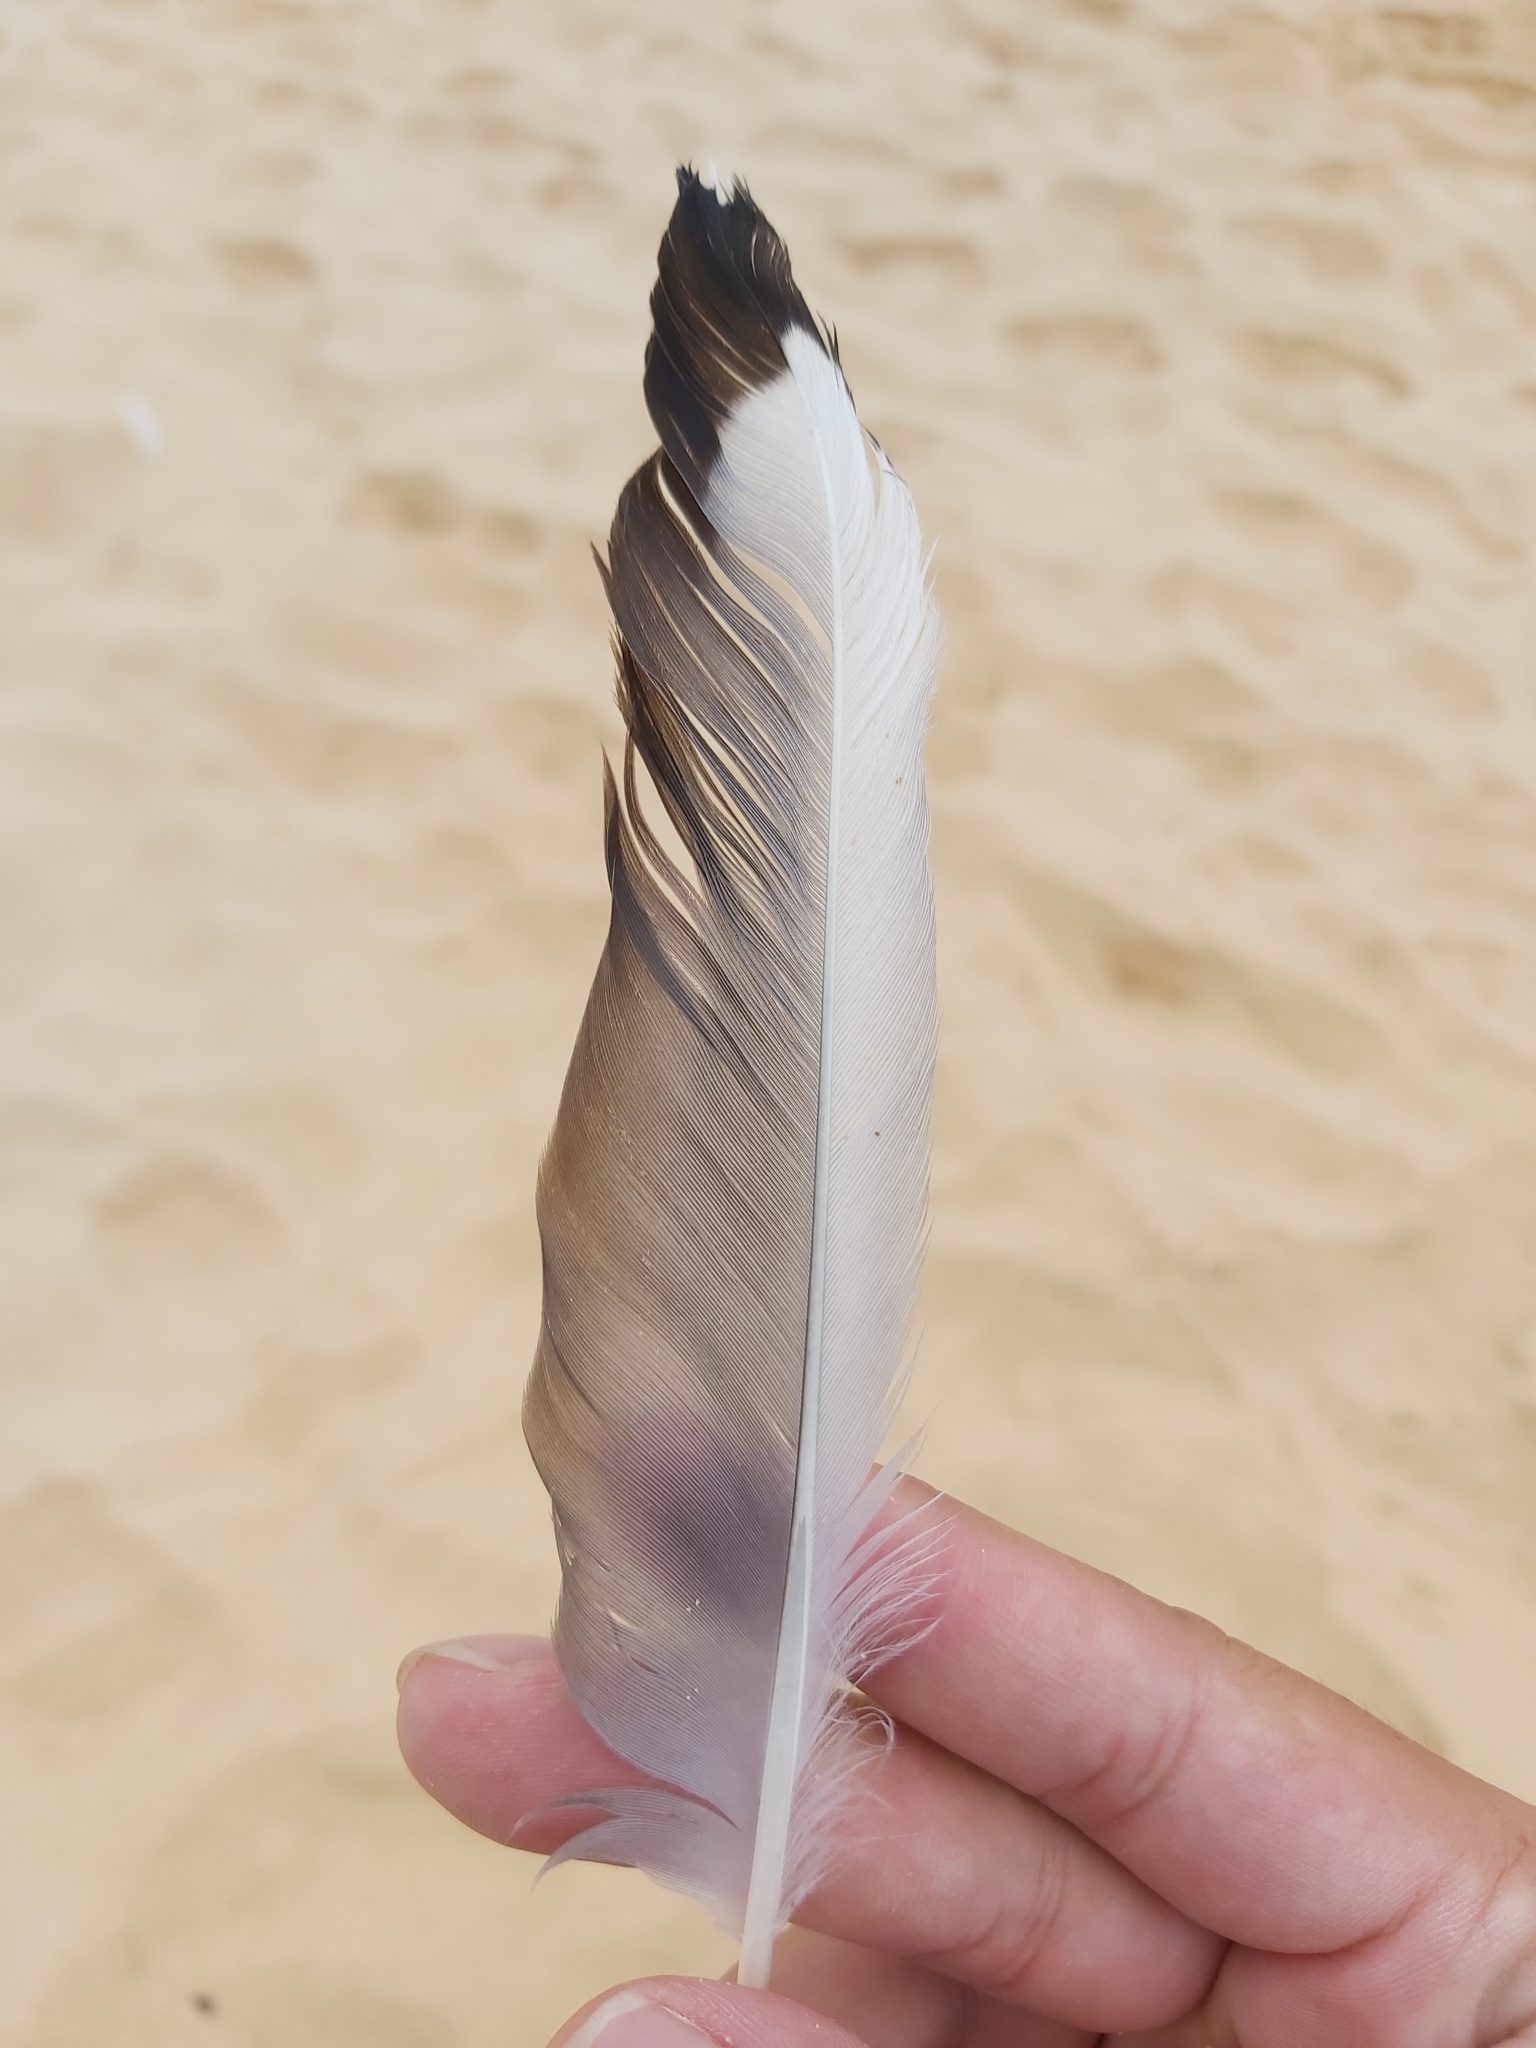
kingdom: Animalia
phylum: Chordata
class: Aves
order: Charadriiformes
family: Laridae
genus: Chroicocephalus
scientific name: Chroicocephalus novaehollandiae
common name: Silver gull
